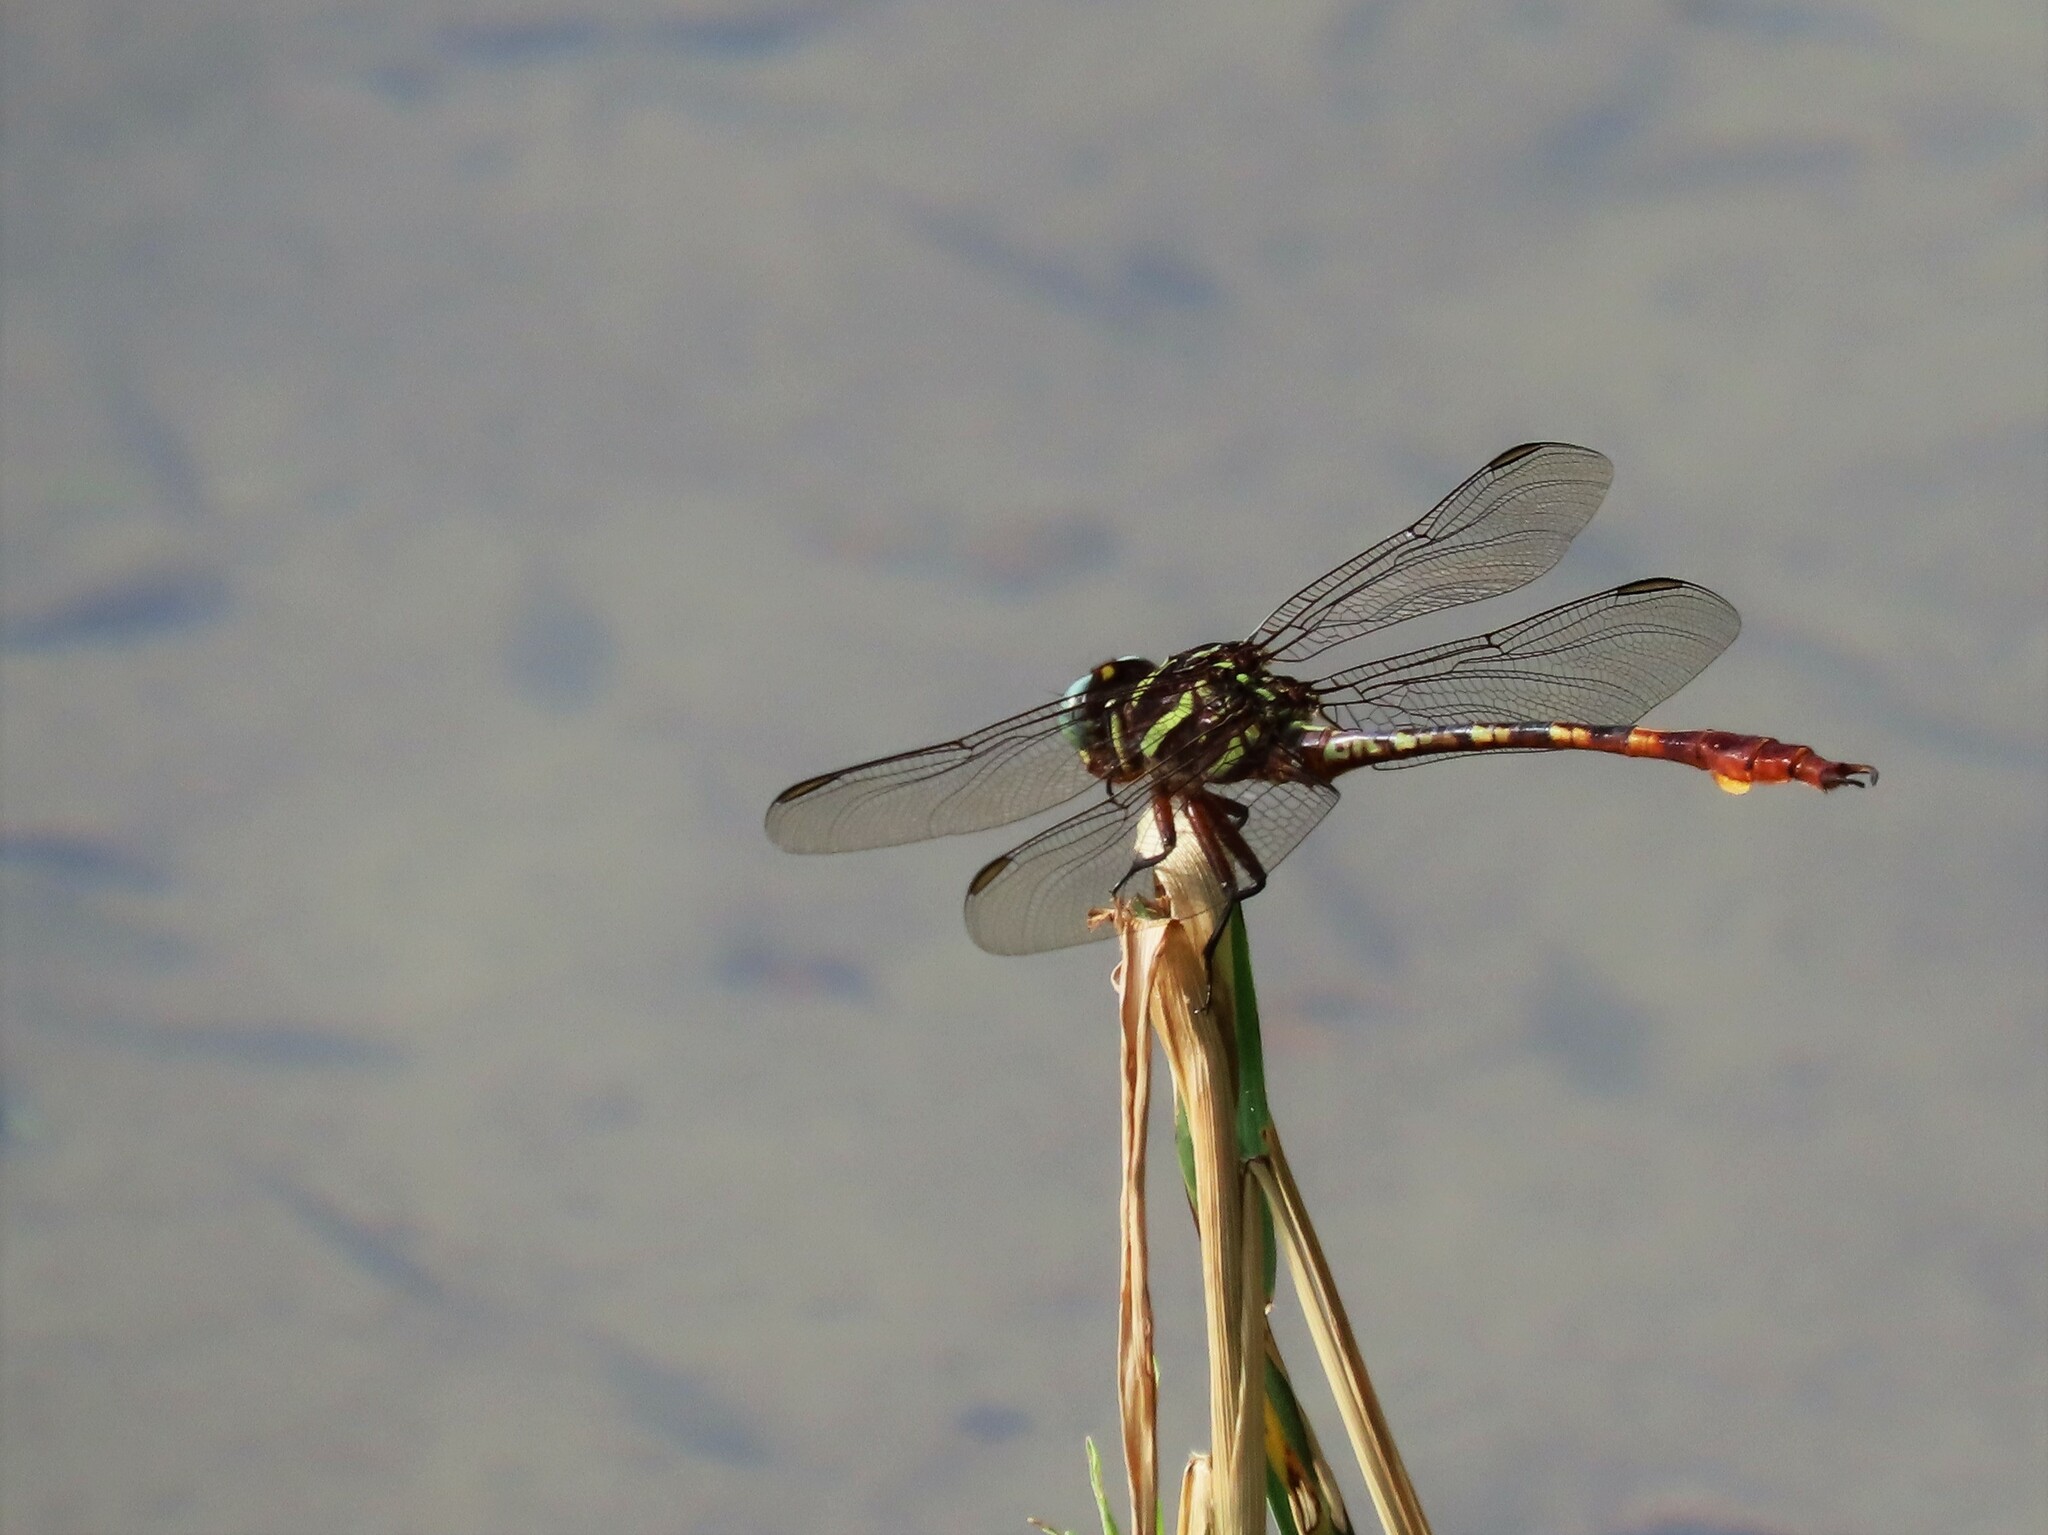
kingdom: Animalia
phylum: Arthropoda
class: Insecta
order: Odonata
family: Gomphidae
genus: Aphylla
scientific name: Aphylla williamsoni
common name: Two-striped forceptail
